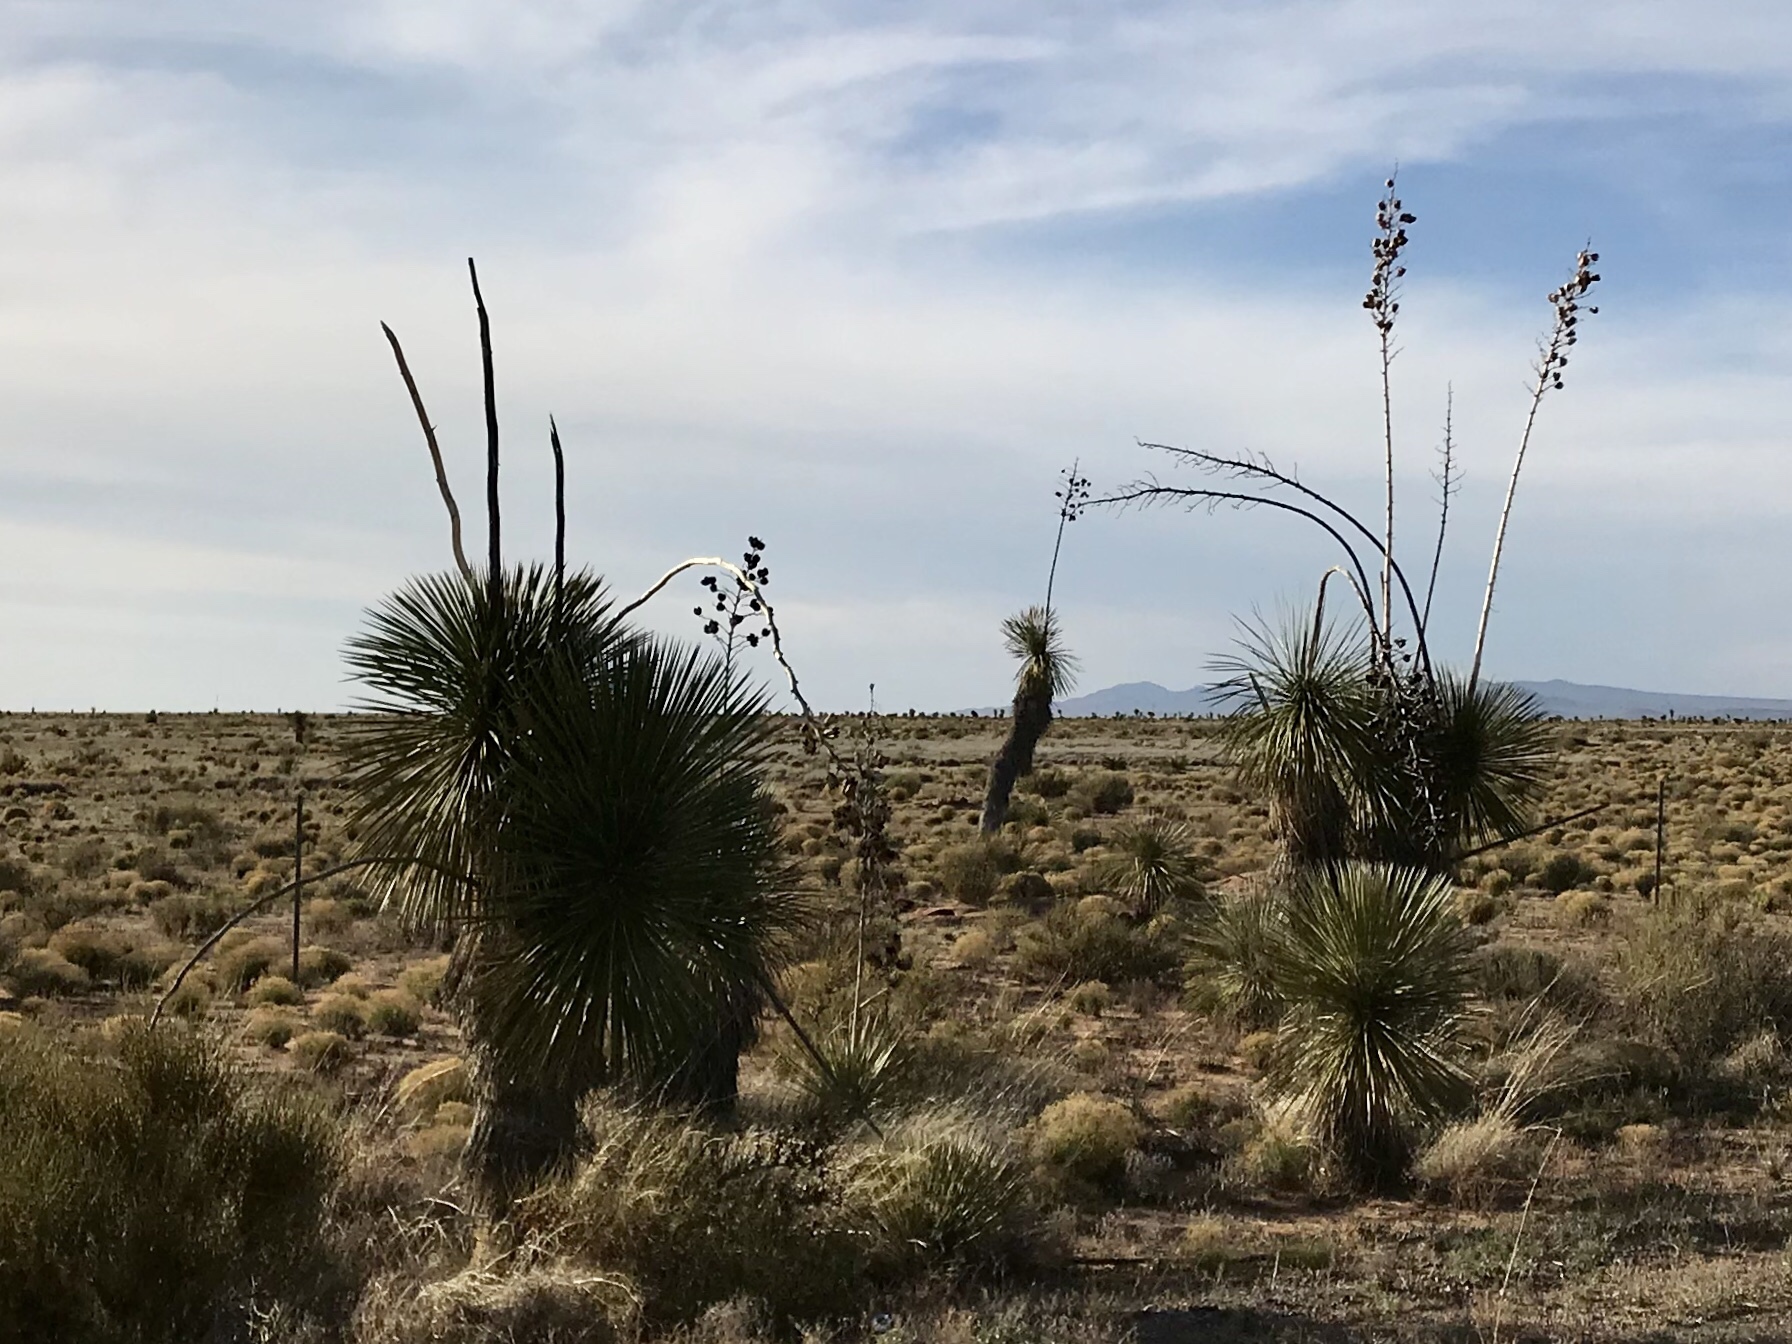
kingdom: Plantae
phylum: Tracheophyta
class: Liliopsida
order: Asparagales
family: Asparagaceae
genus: Yucca
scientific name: Yucca elata
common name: Palmella
